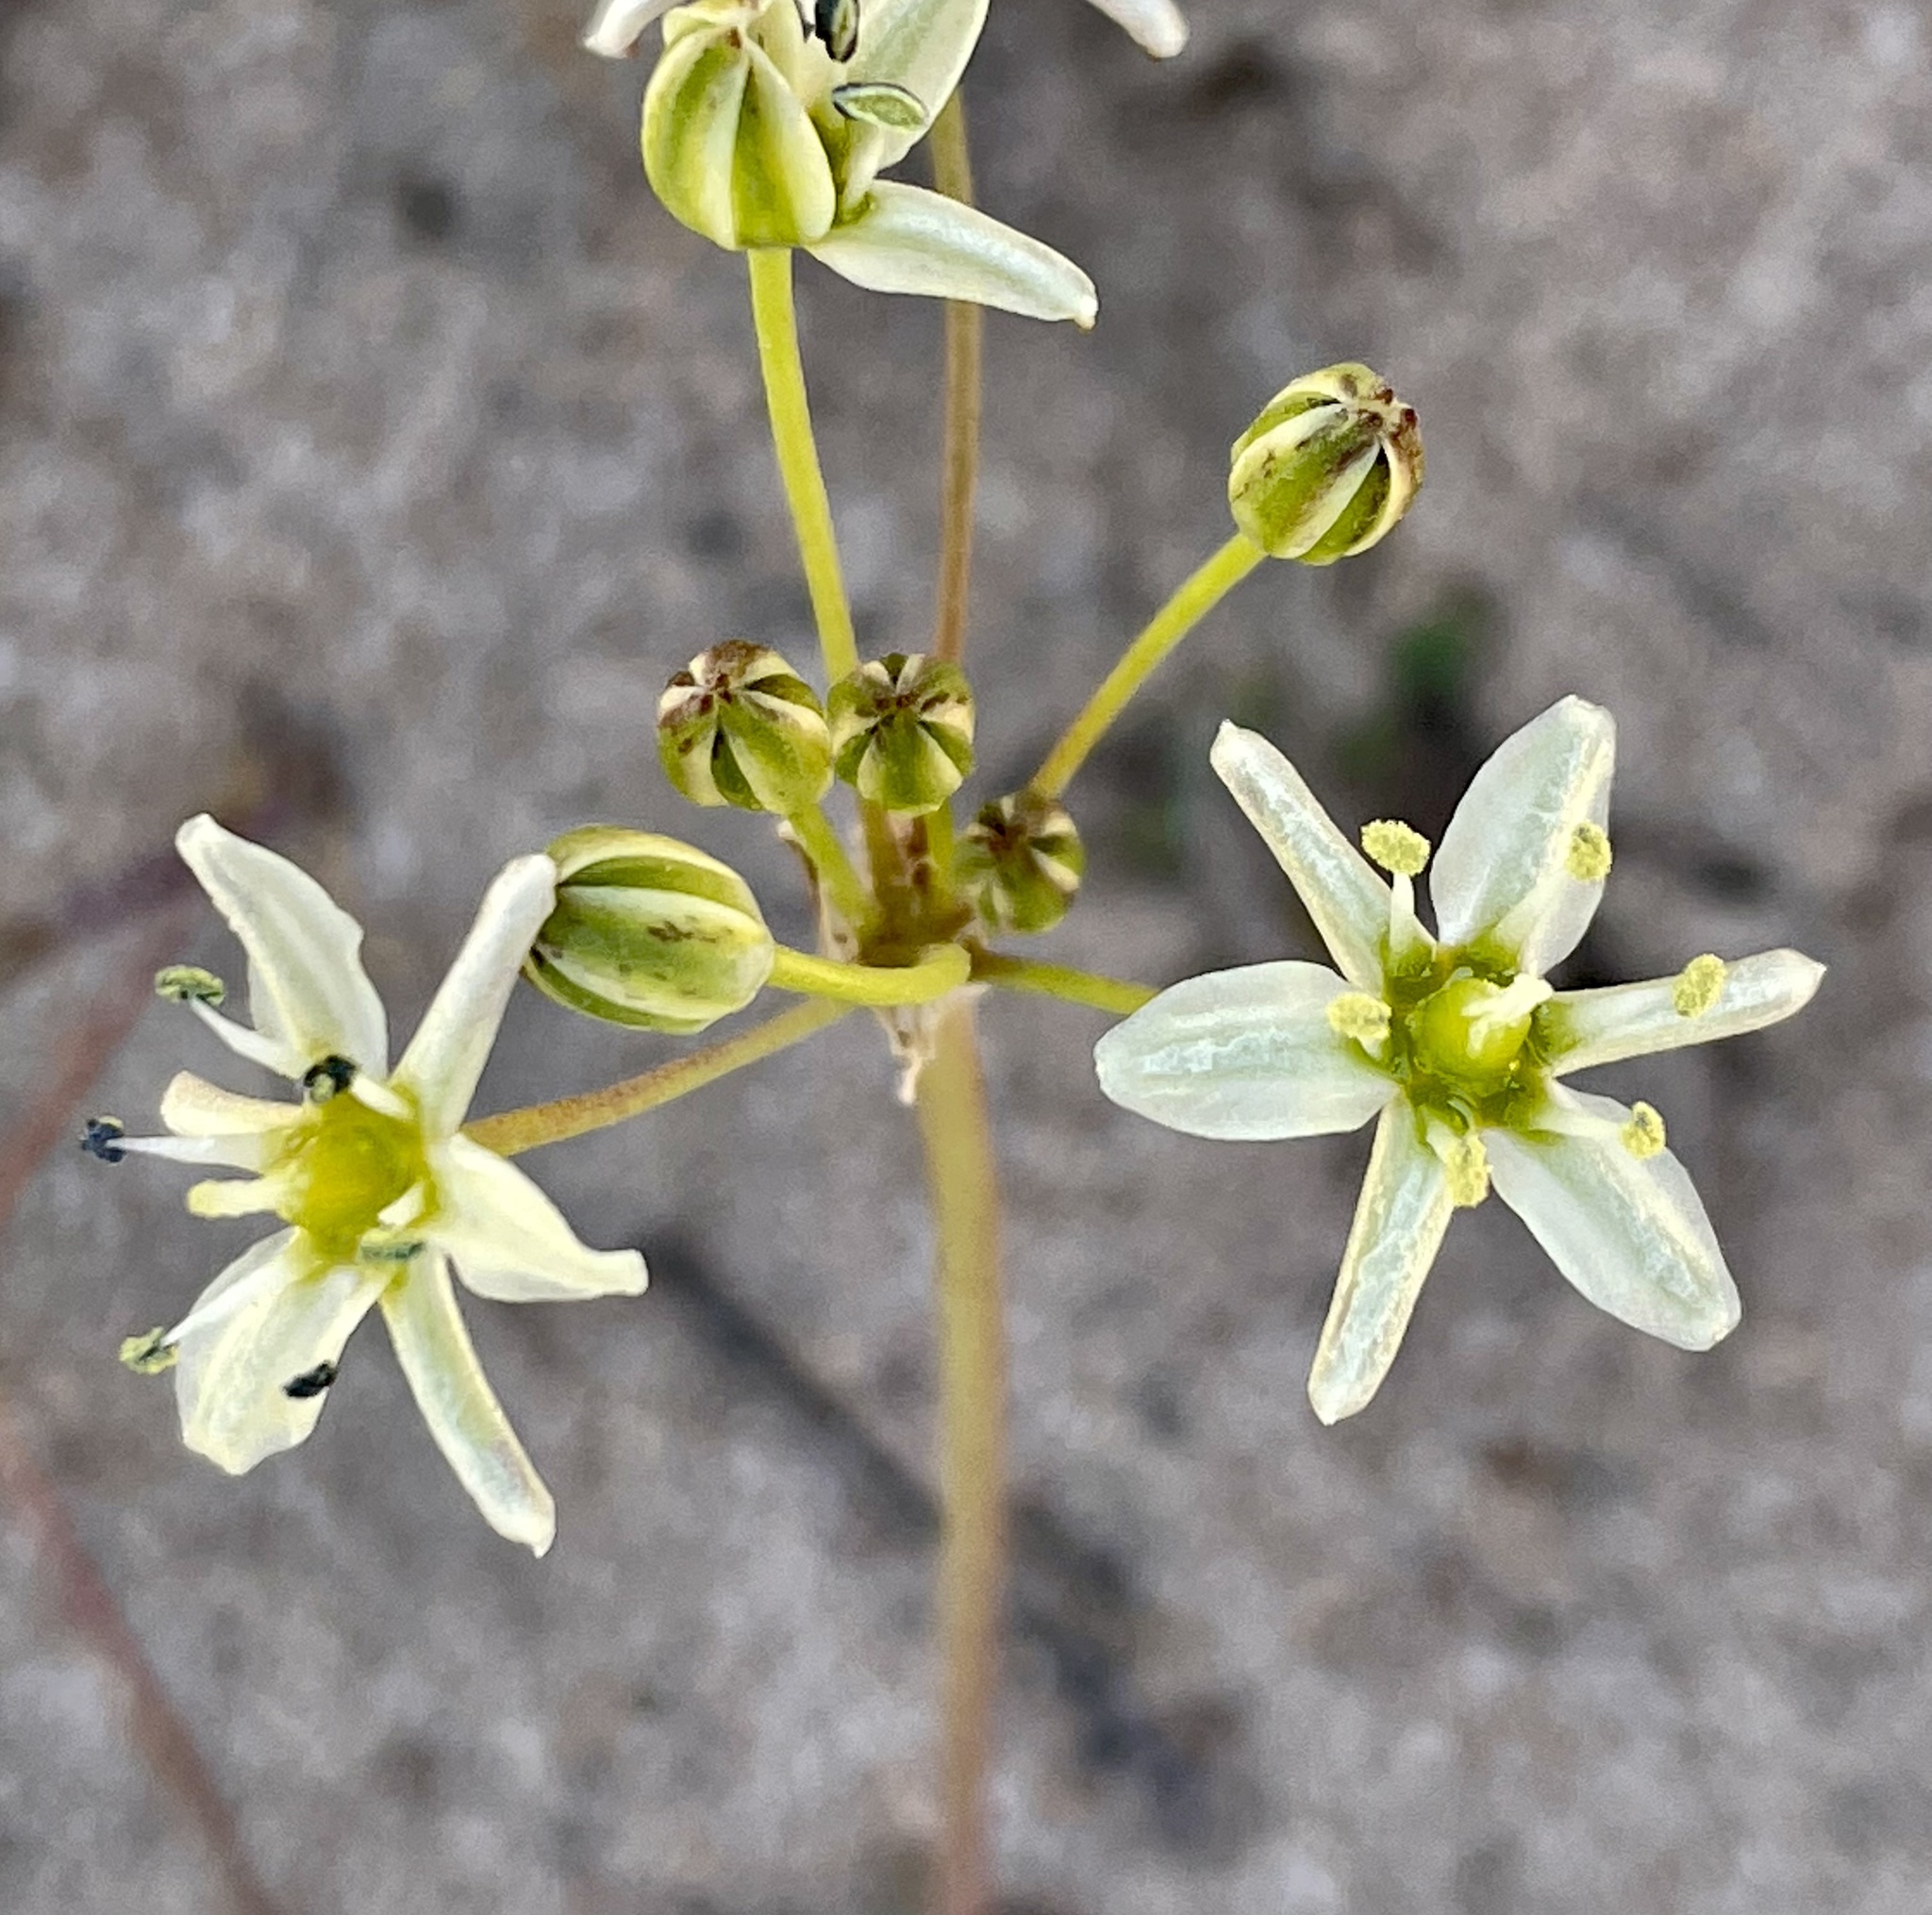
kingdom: Plantae
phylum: Tracheophyta
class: Liliopsida
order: Asparagales
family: Asparagaceae
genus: Muilla
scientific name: Muilla maritima
